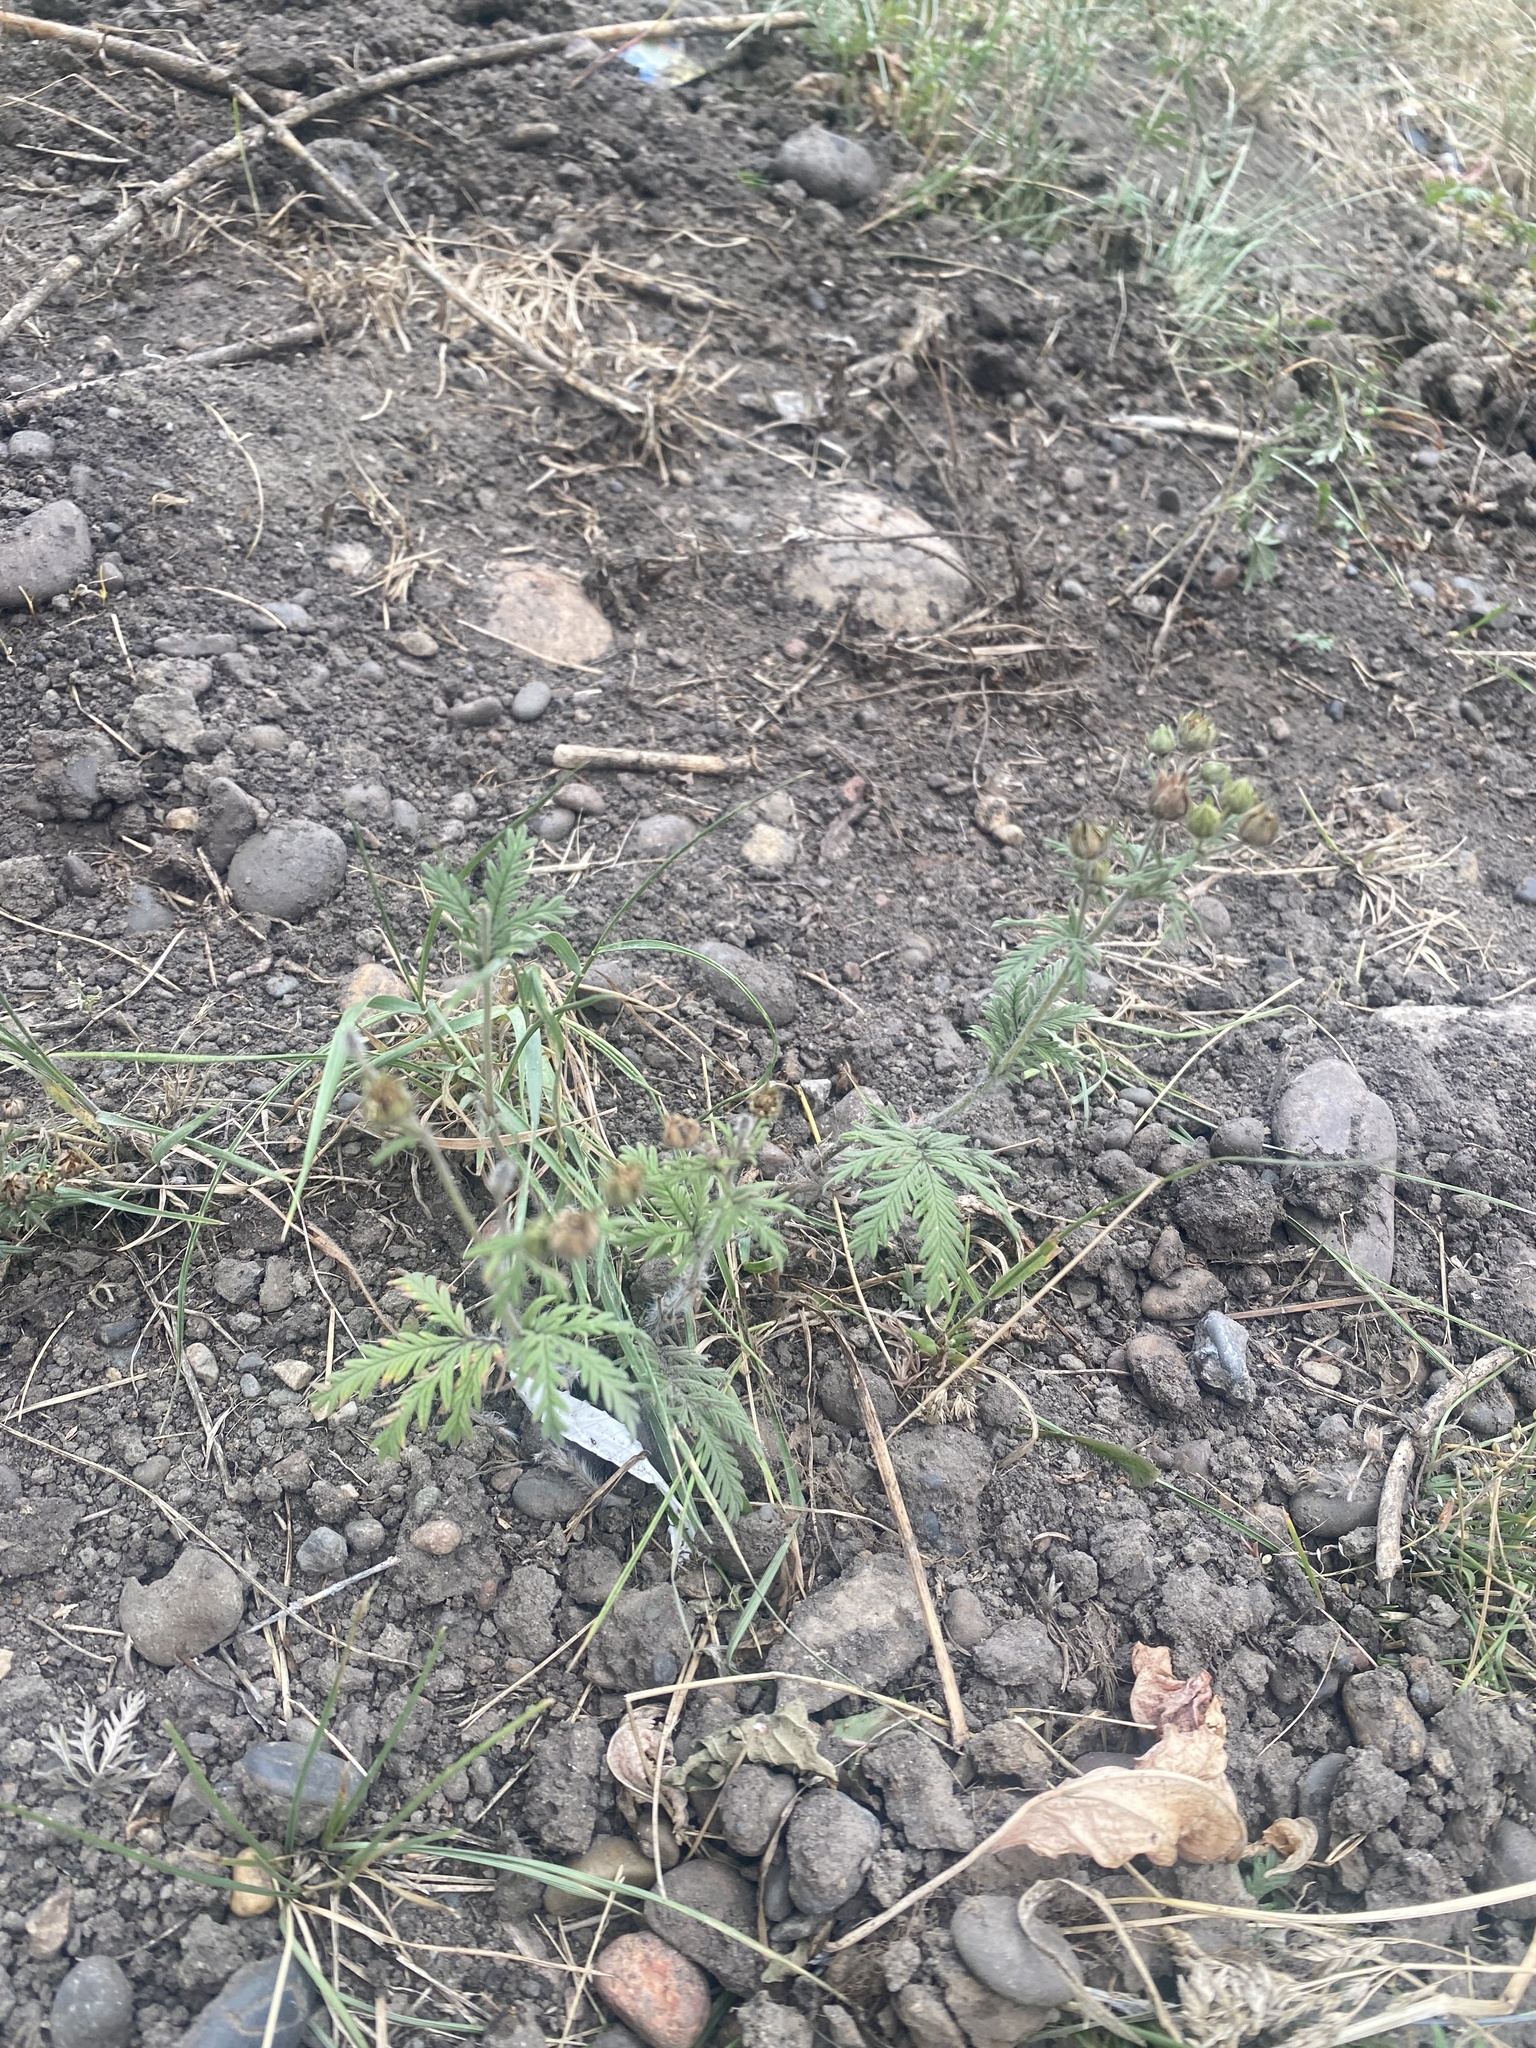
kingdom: Plantae
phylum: Tracheophyta
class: Magnoliopsida
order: Rosales
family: Rosaceae
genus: Potentilla
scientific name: Potentilla argentea
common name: Hoary cinquefoil
